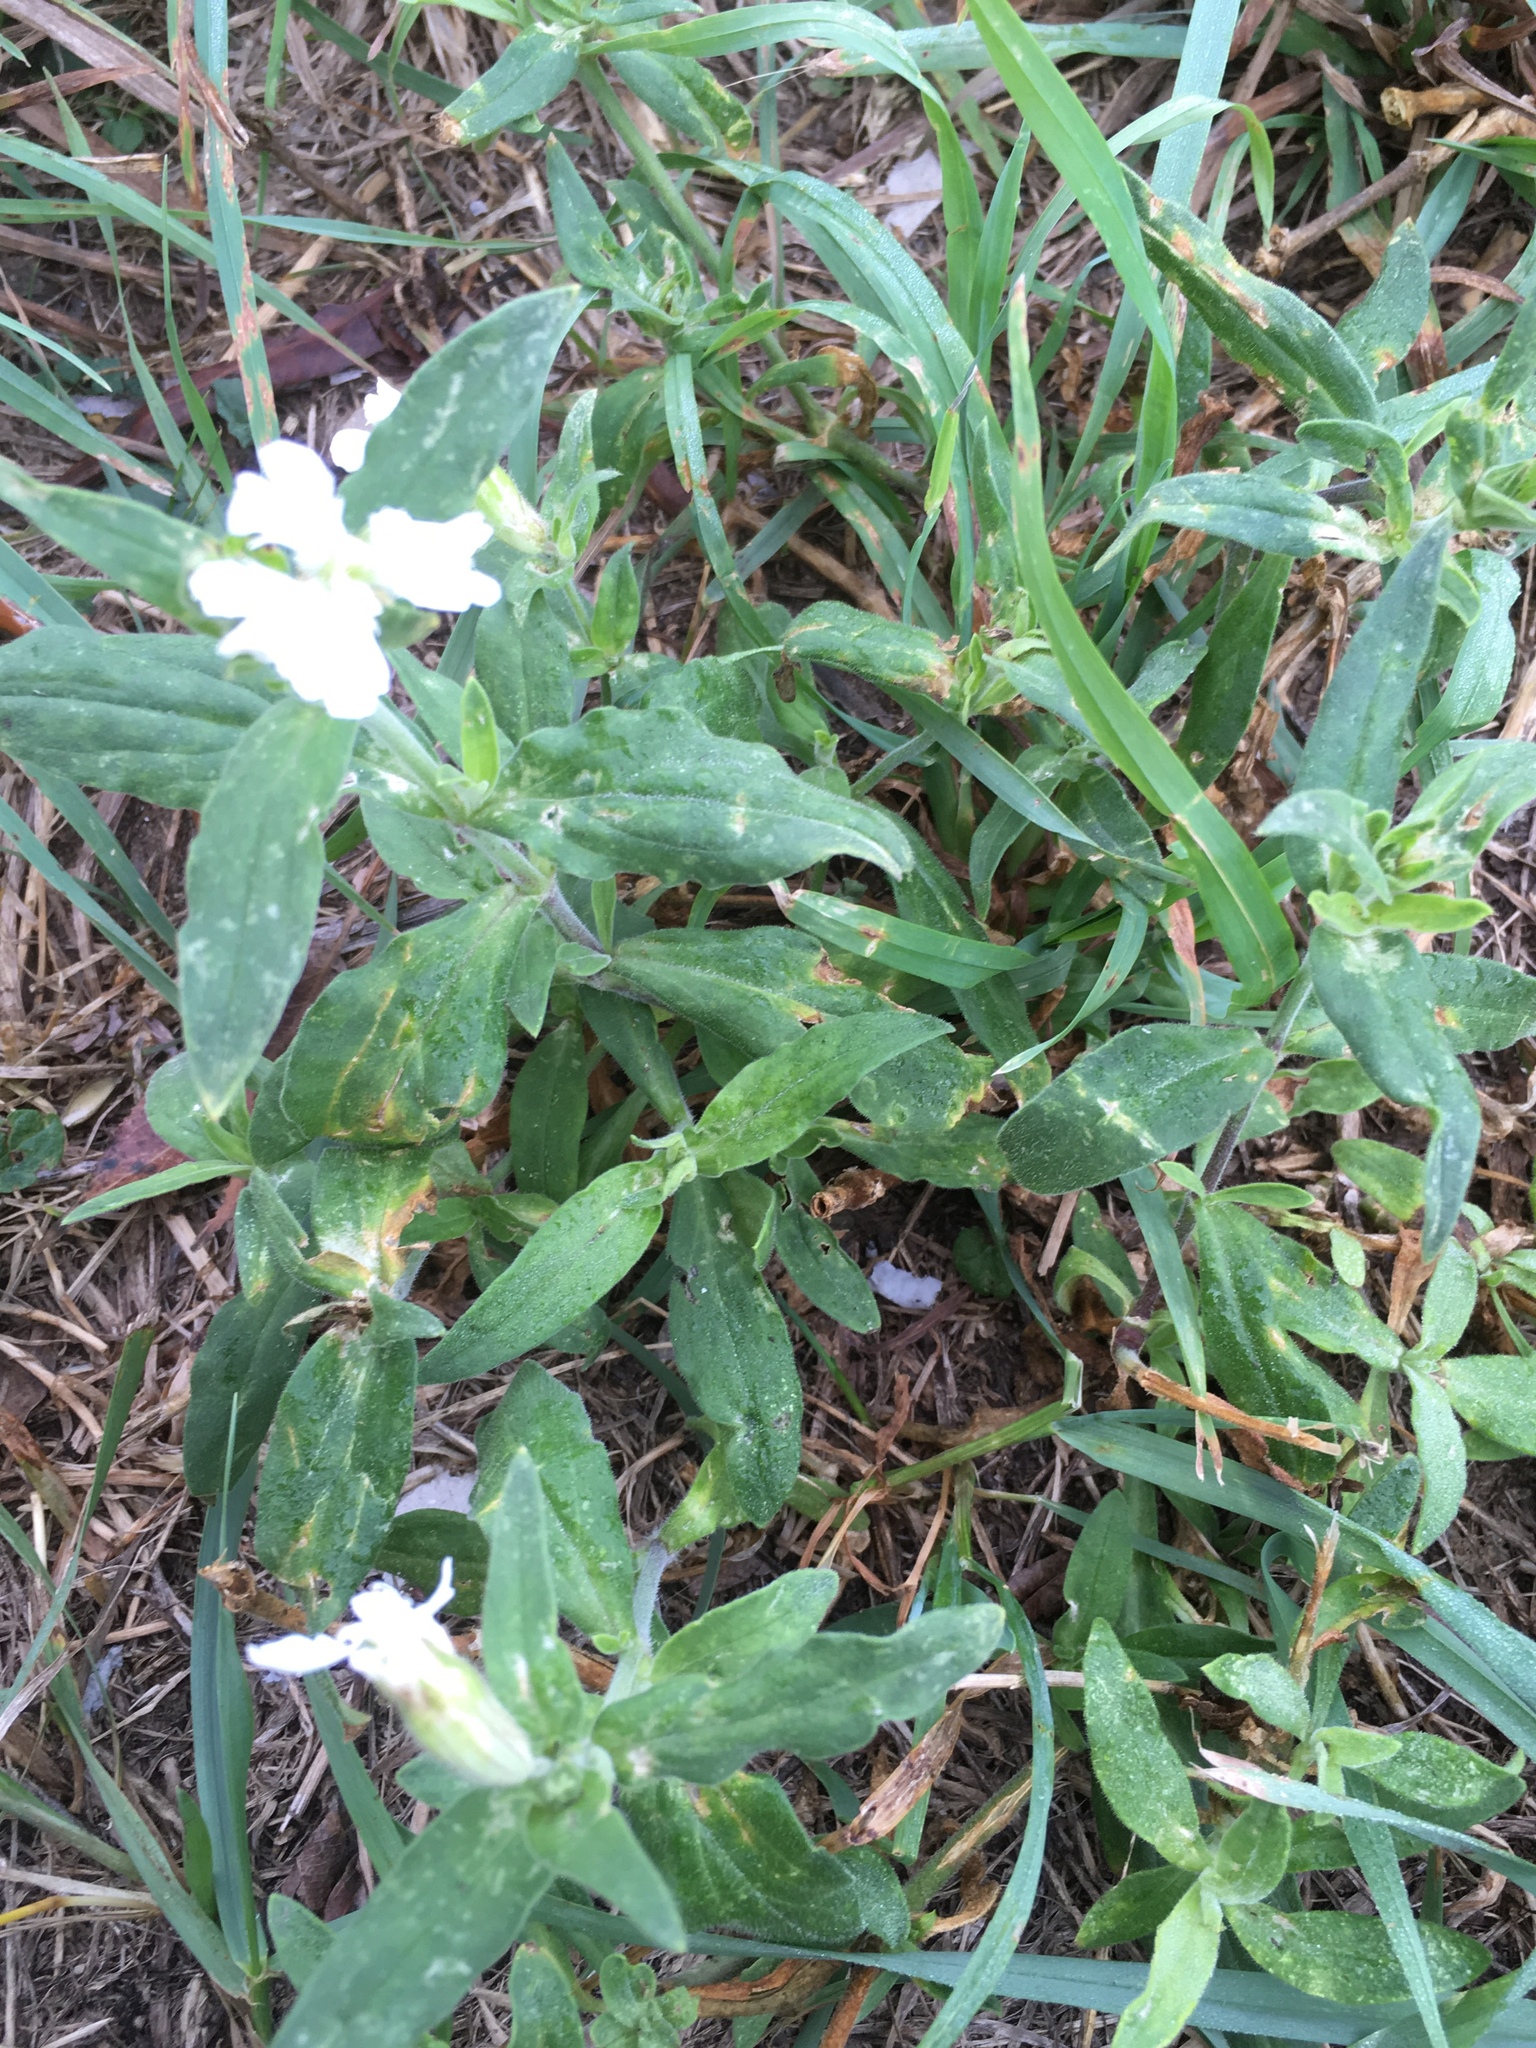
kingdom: Plantae
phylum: Tracheophyta
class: Magnoliopsida
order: Caryophyllales
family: Caryophyllaceae
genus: Silene
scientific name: Silene latifolia
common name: White campion
